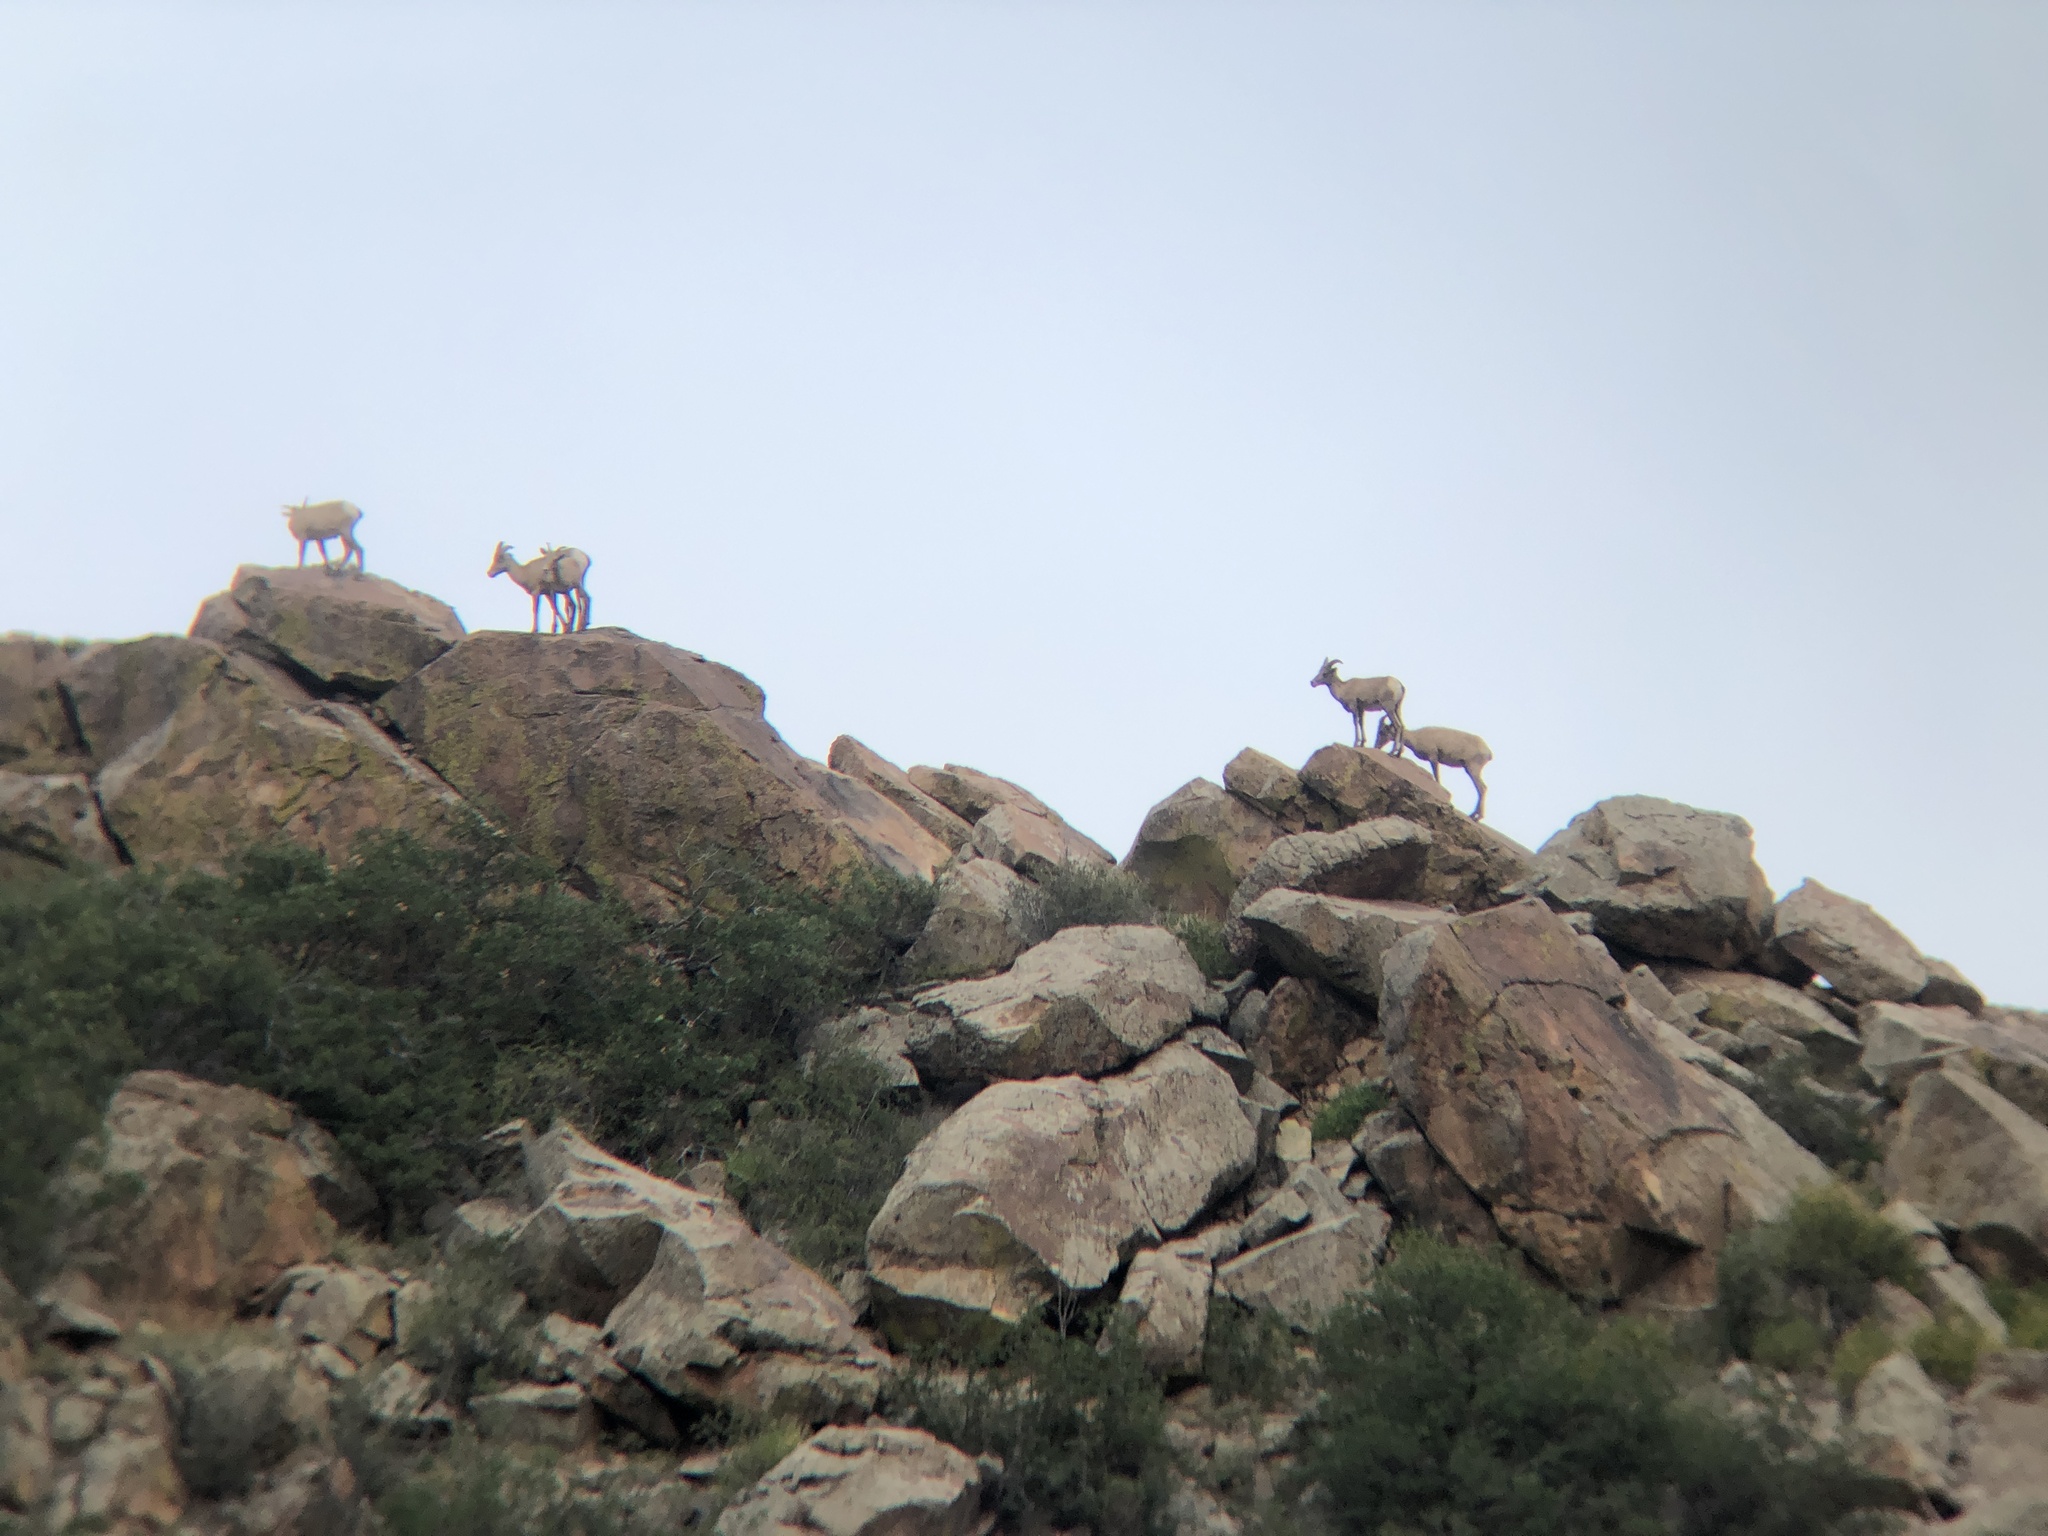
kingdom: Animalia
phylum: Chordata
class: Mammalia
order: Artiodactyla
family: Bovidae
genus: Ovis
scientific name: Ovis canadensis
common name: Bighorn sheep
